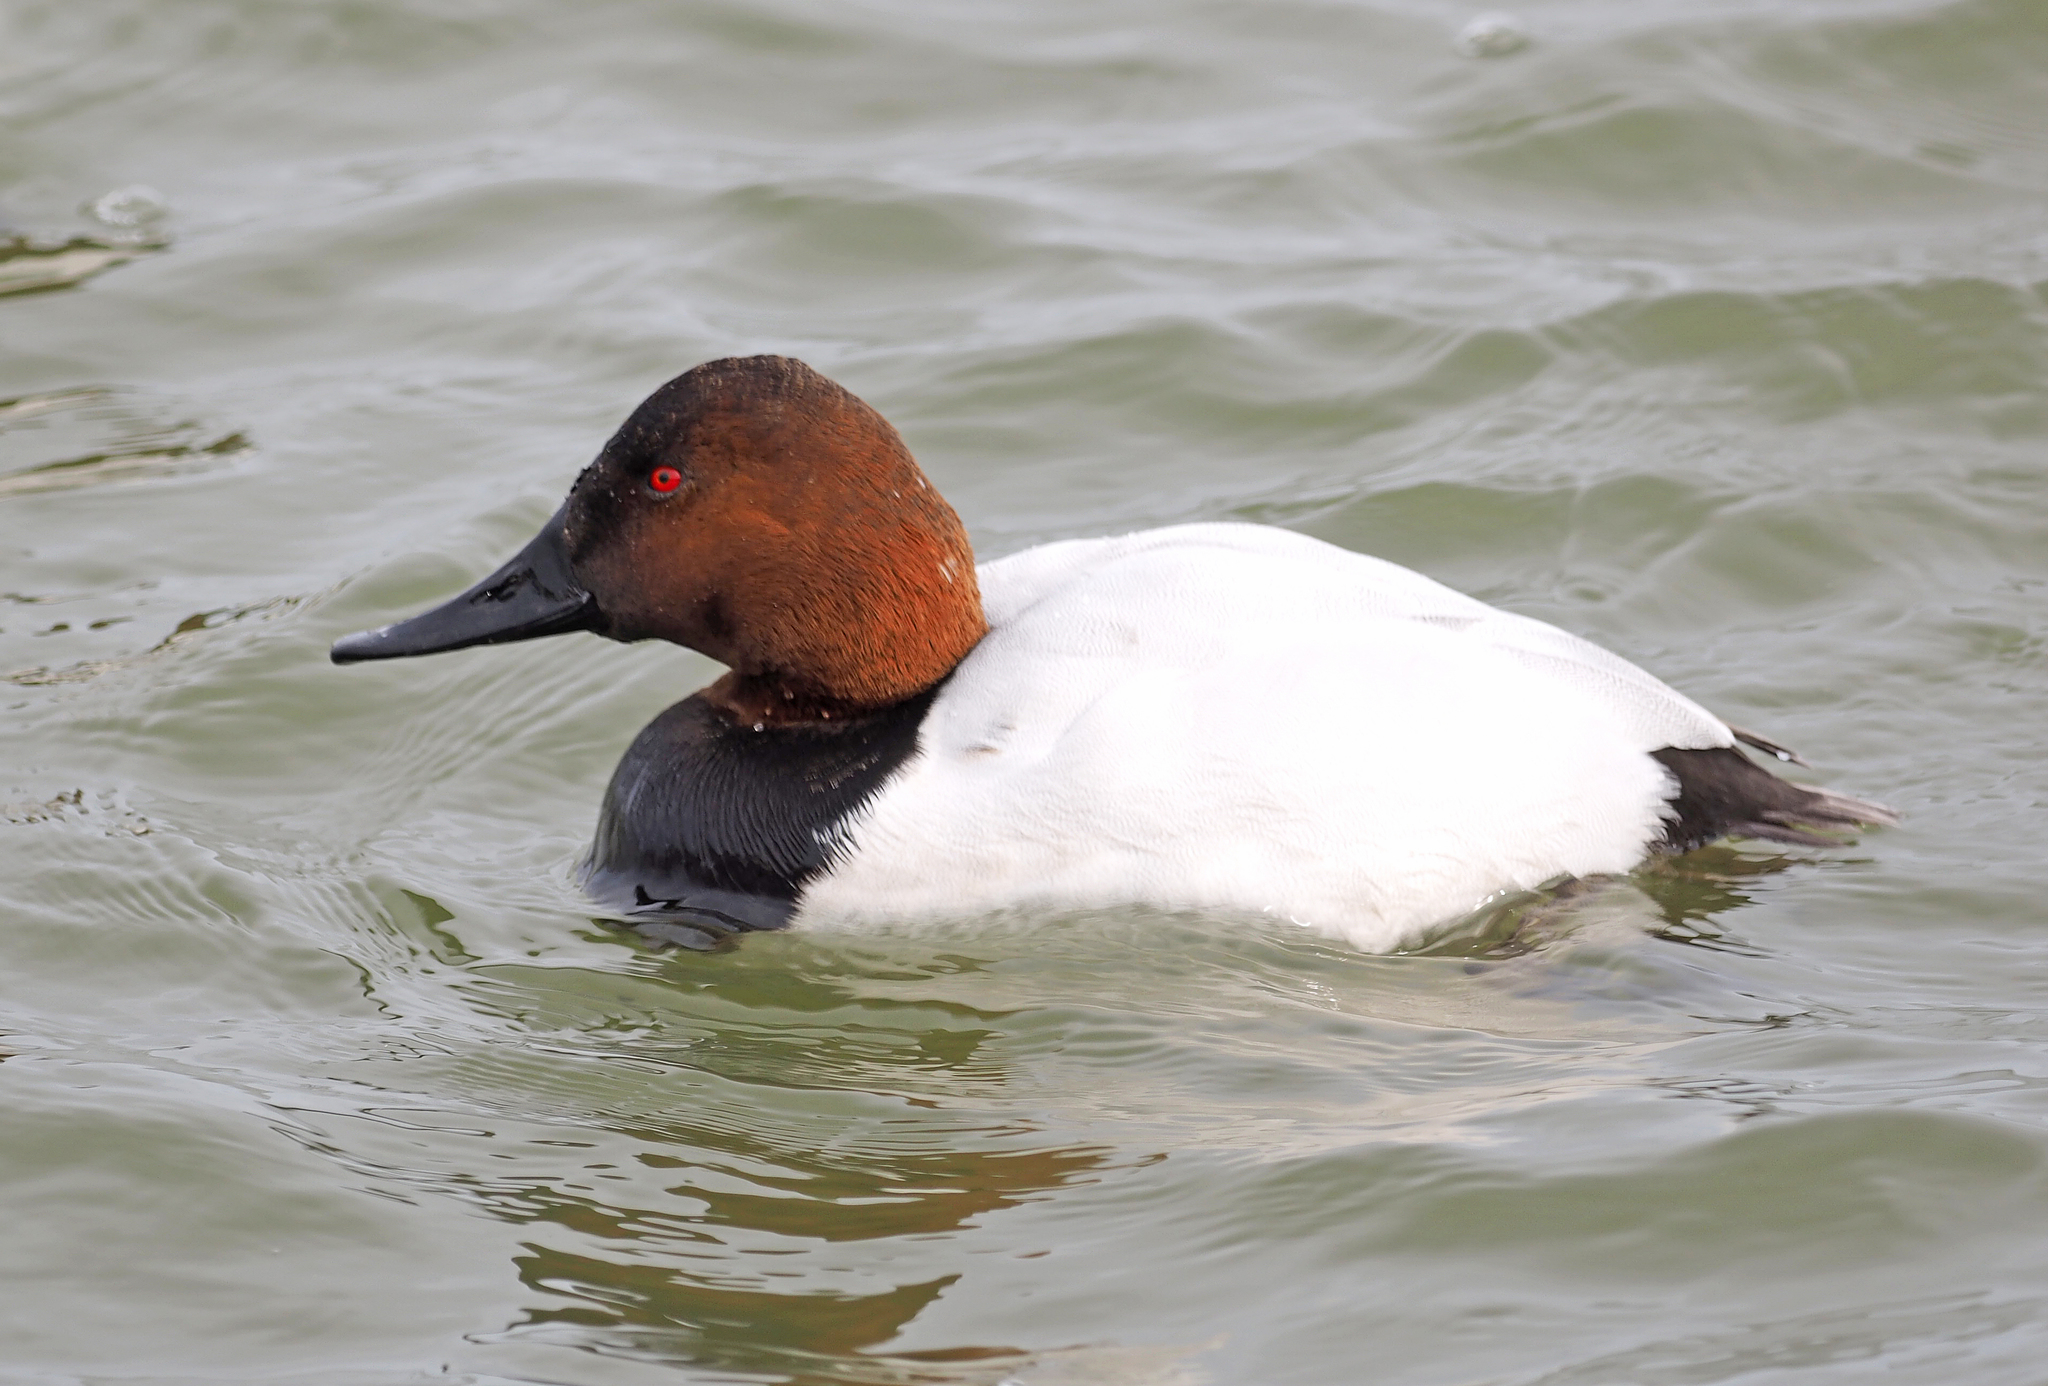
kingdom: Animalia
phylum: Chordata
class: Aves
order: Anseriformes
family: Anatidae
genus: Aythya
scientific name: Aythya valisineria
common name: Canvasback
